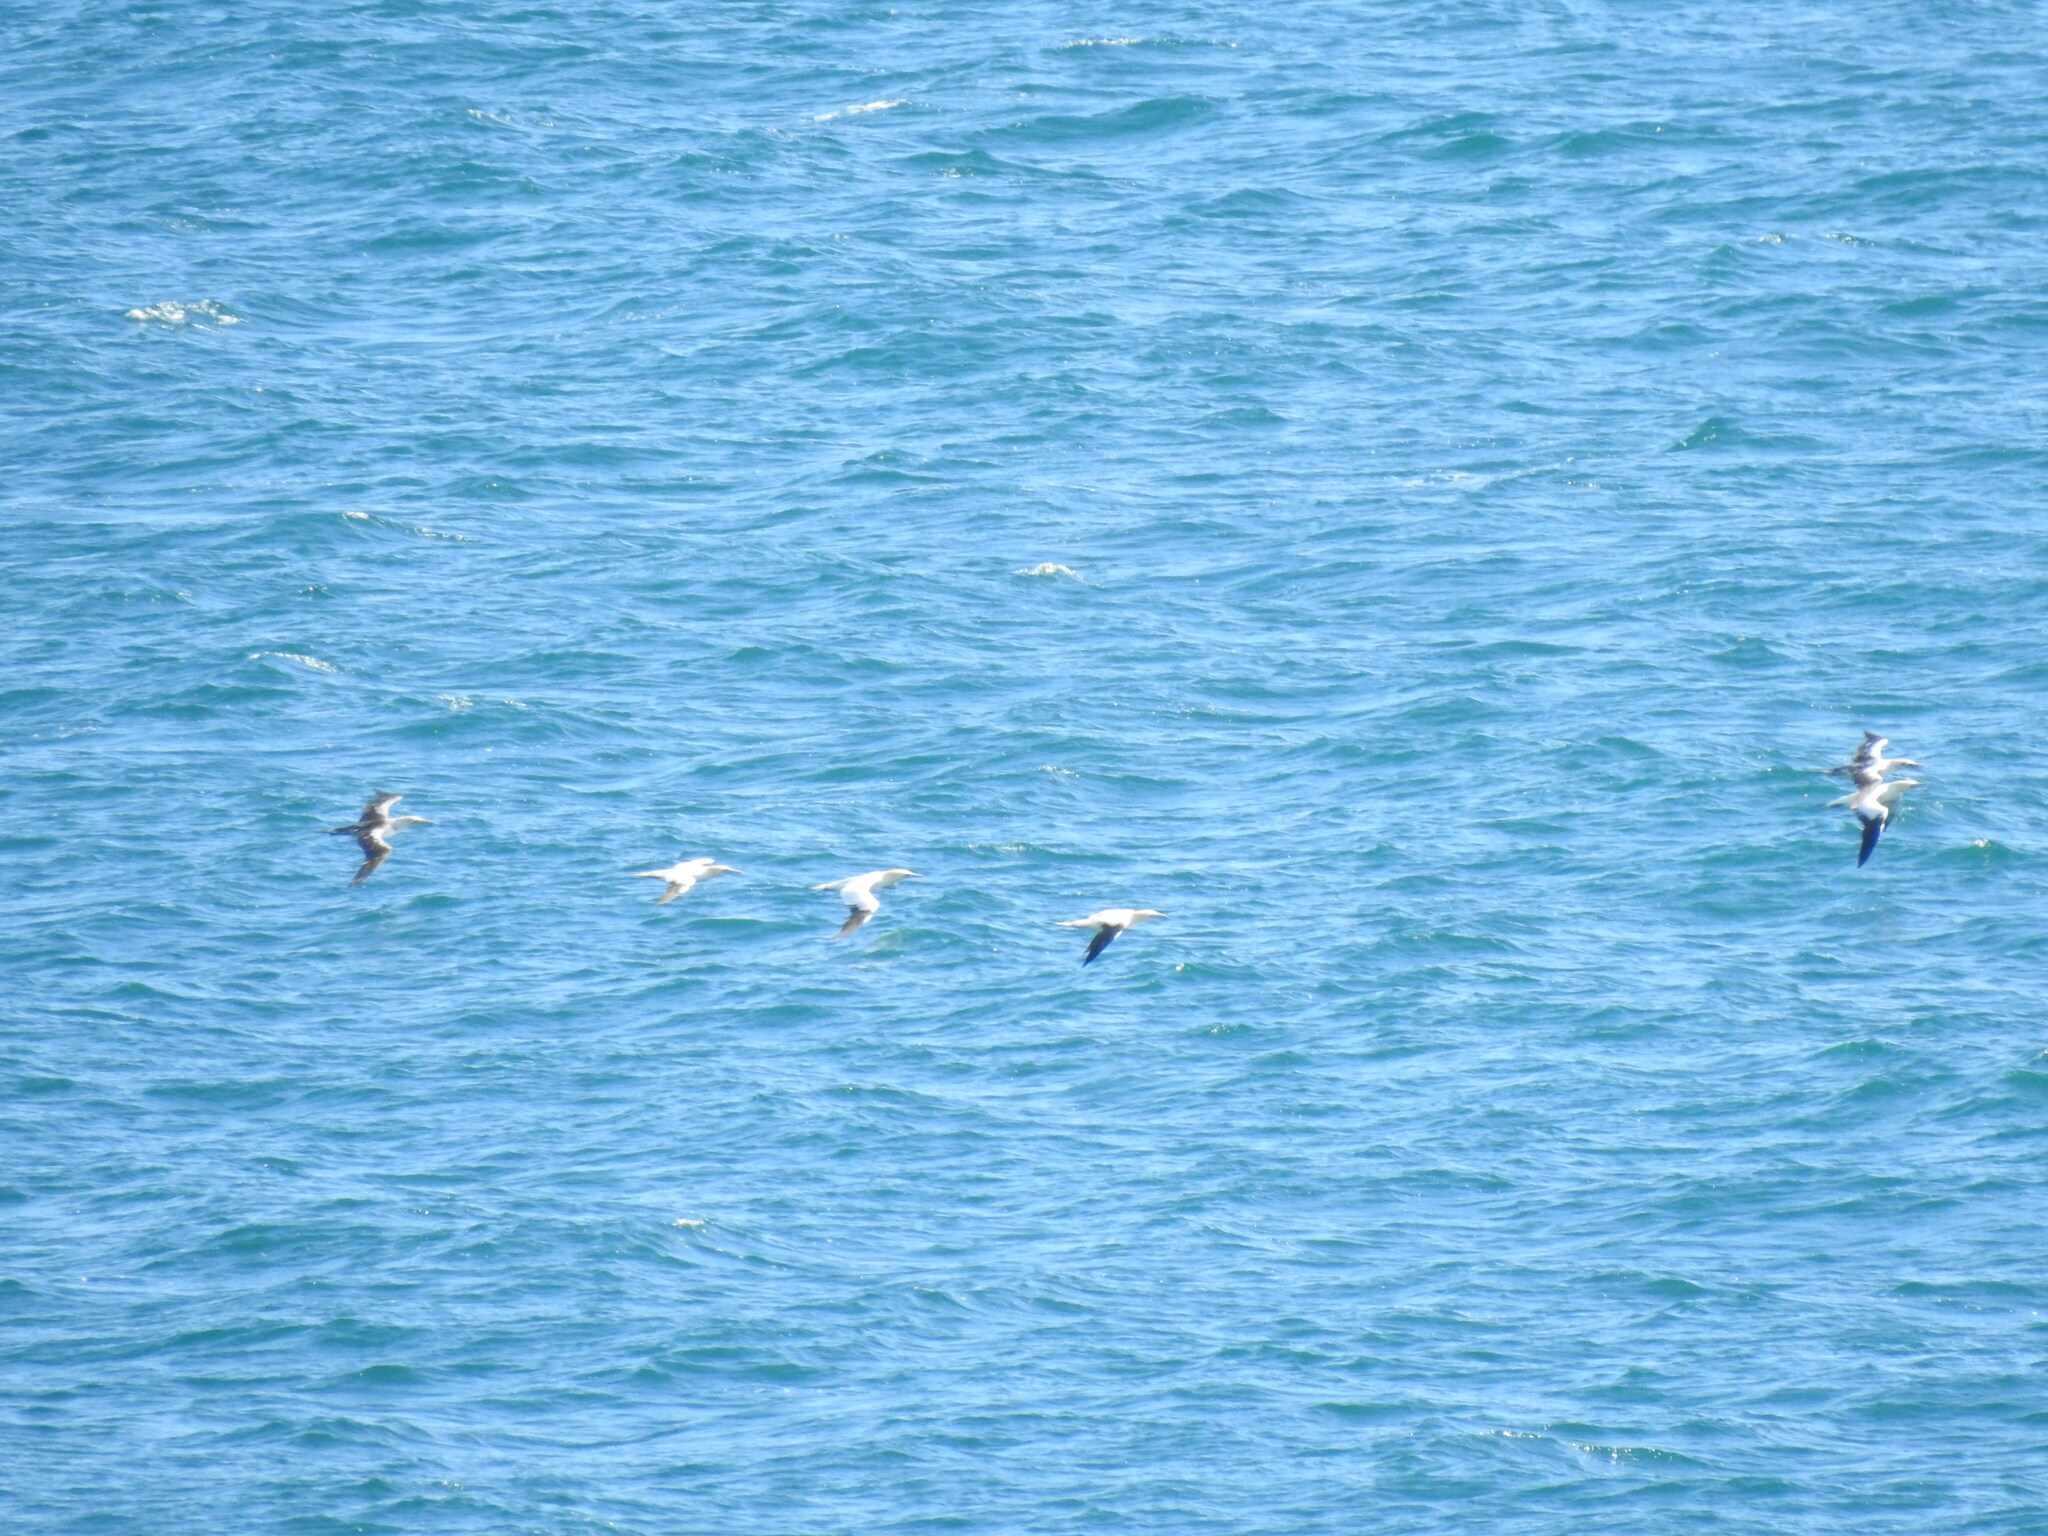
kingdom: Animalia
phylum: Chordata
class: Aves
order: Suliformes
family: Sulidae
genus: Morus
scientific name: Morus bassanus
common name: Northern gannet
